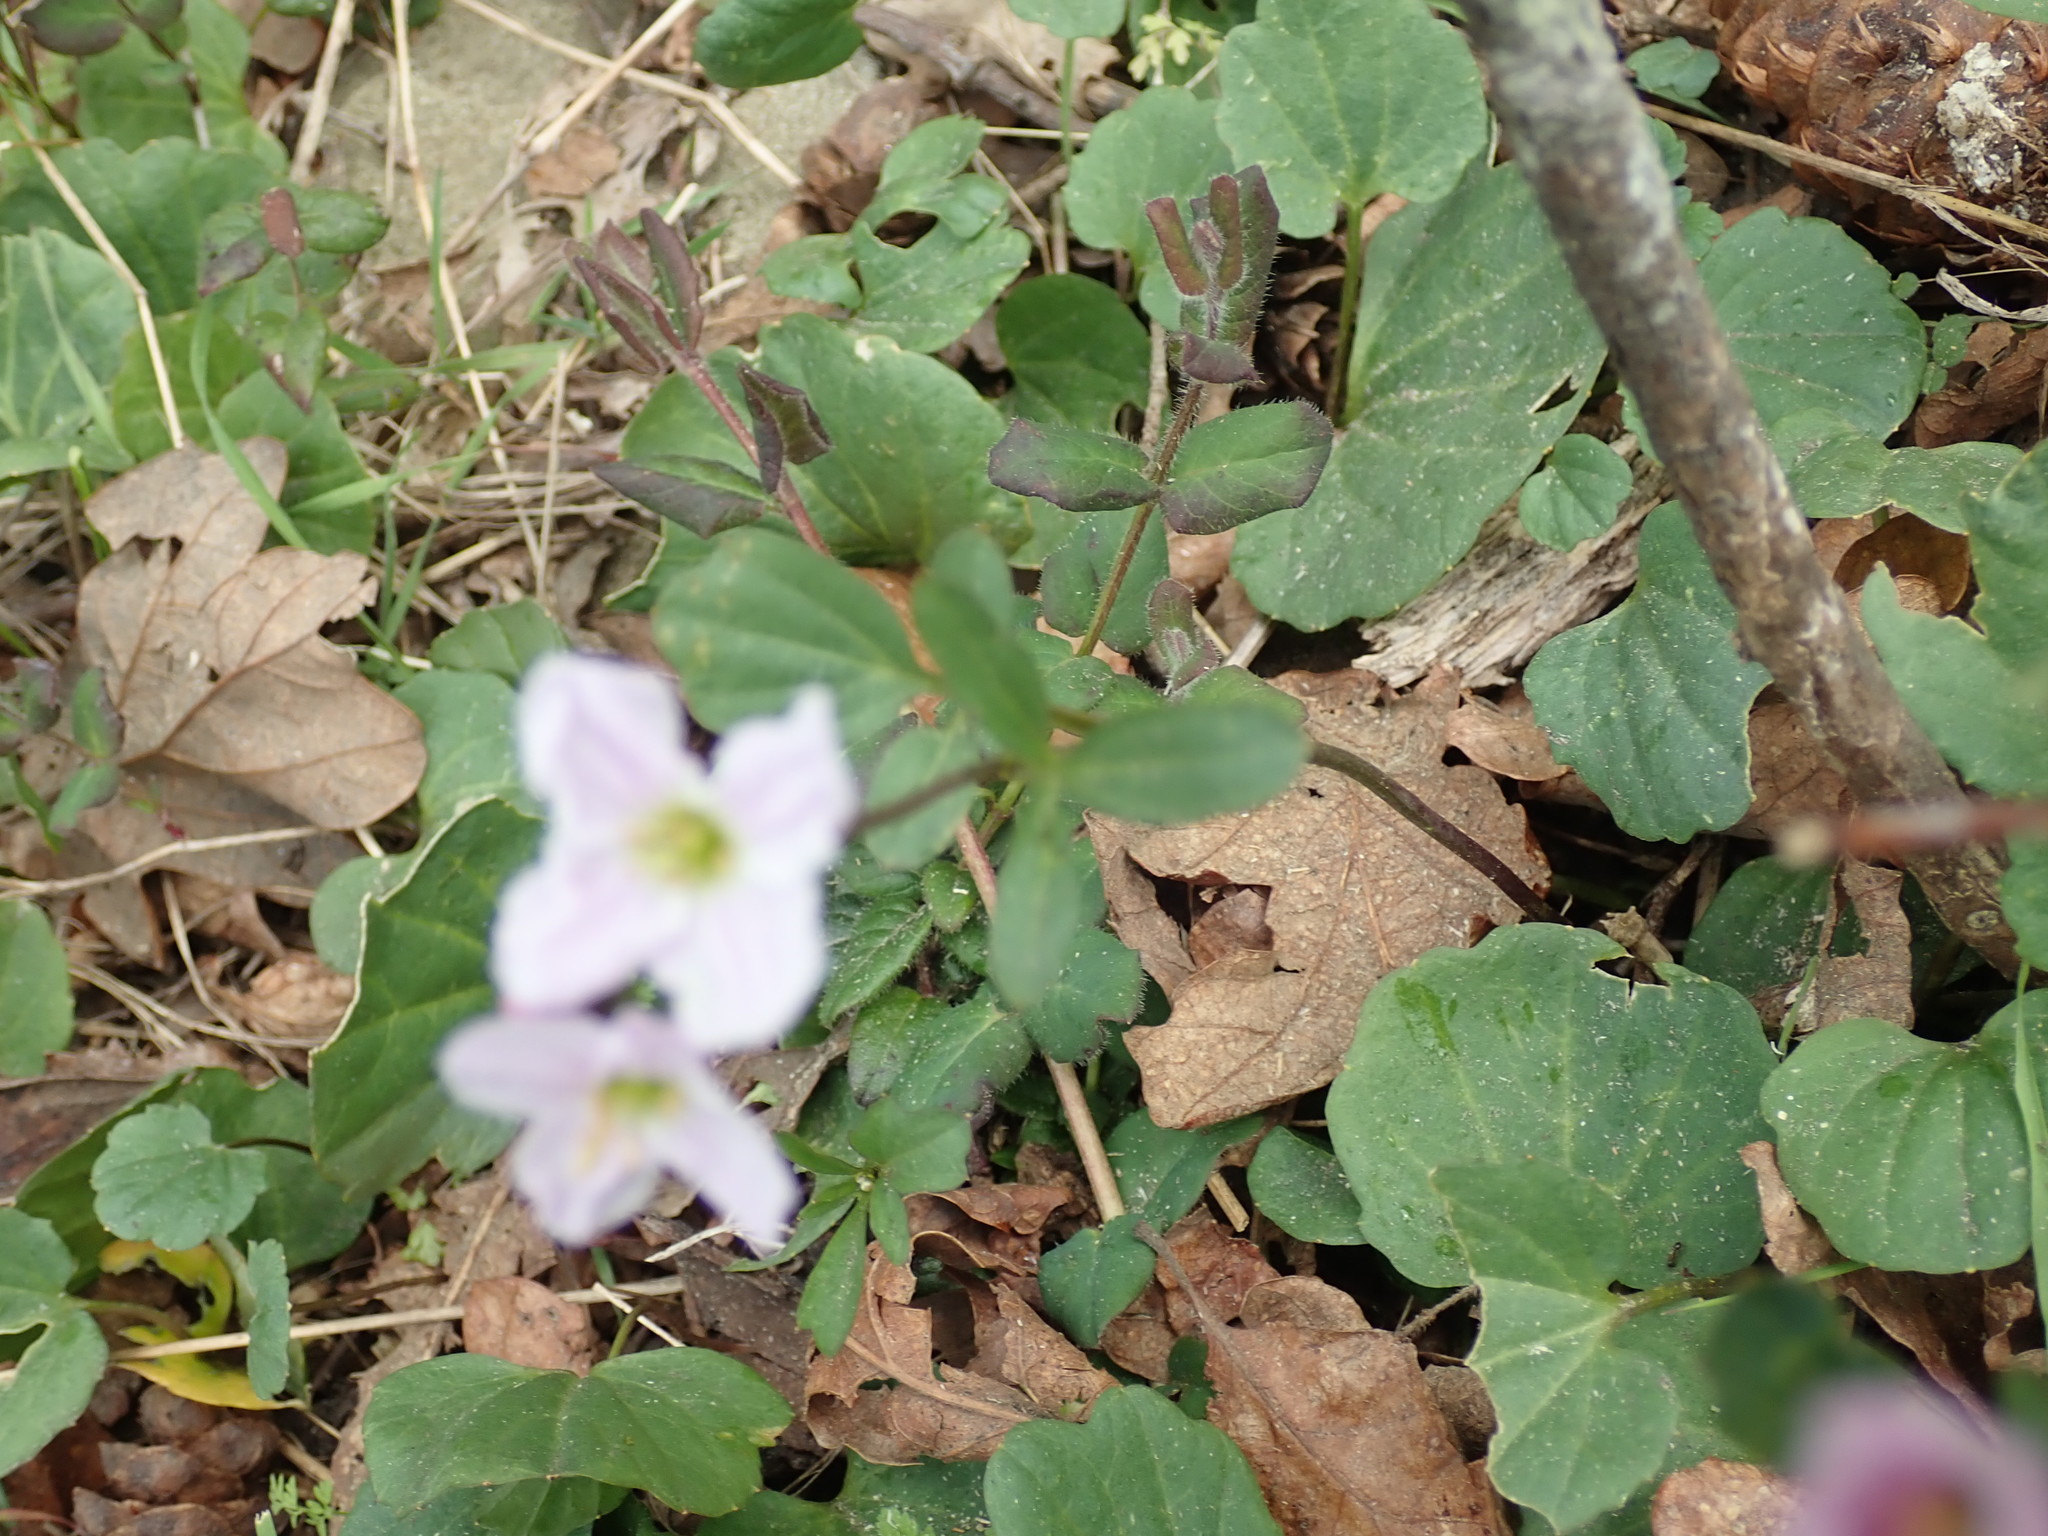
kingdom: Plantae
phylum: Tracheophyta
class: Magnoliopsida
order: Brassicales
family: Brassicaceae
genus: Cardamine
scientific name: Cardamine nuttallii
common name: Nuttall's toothwort
